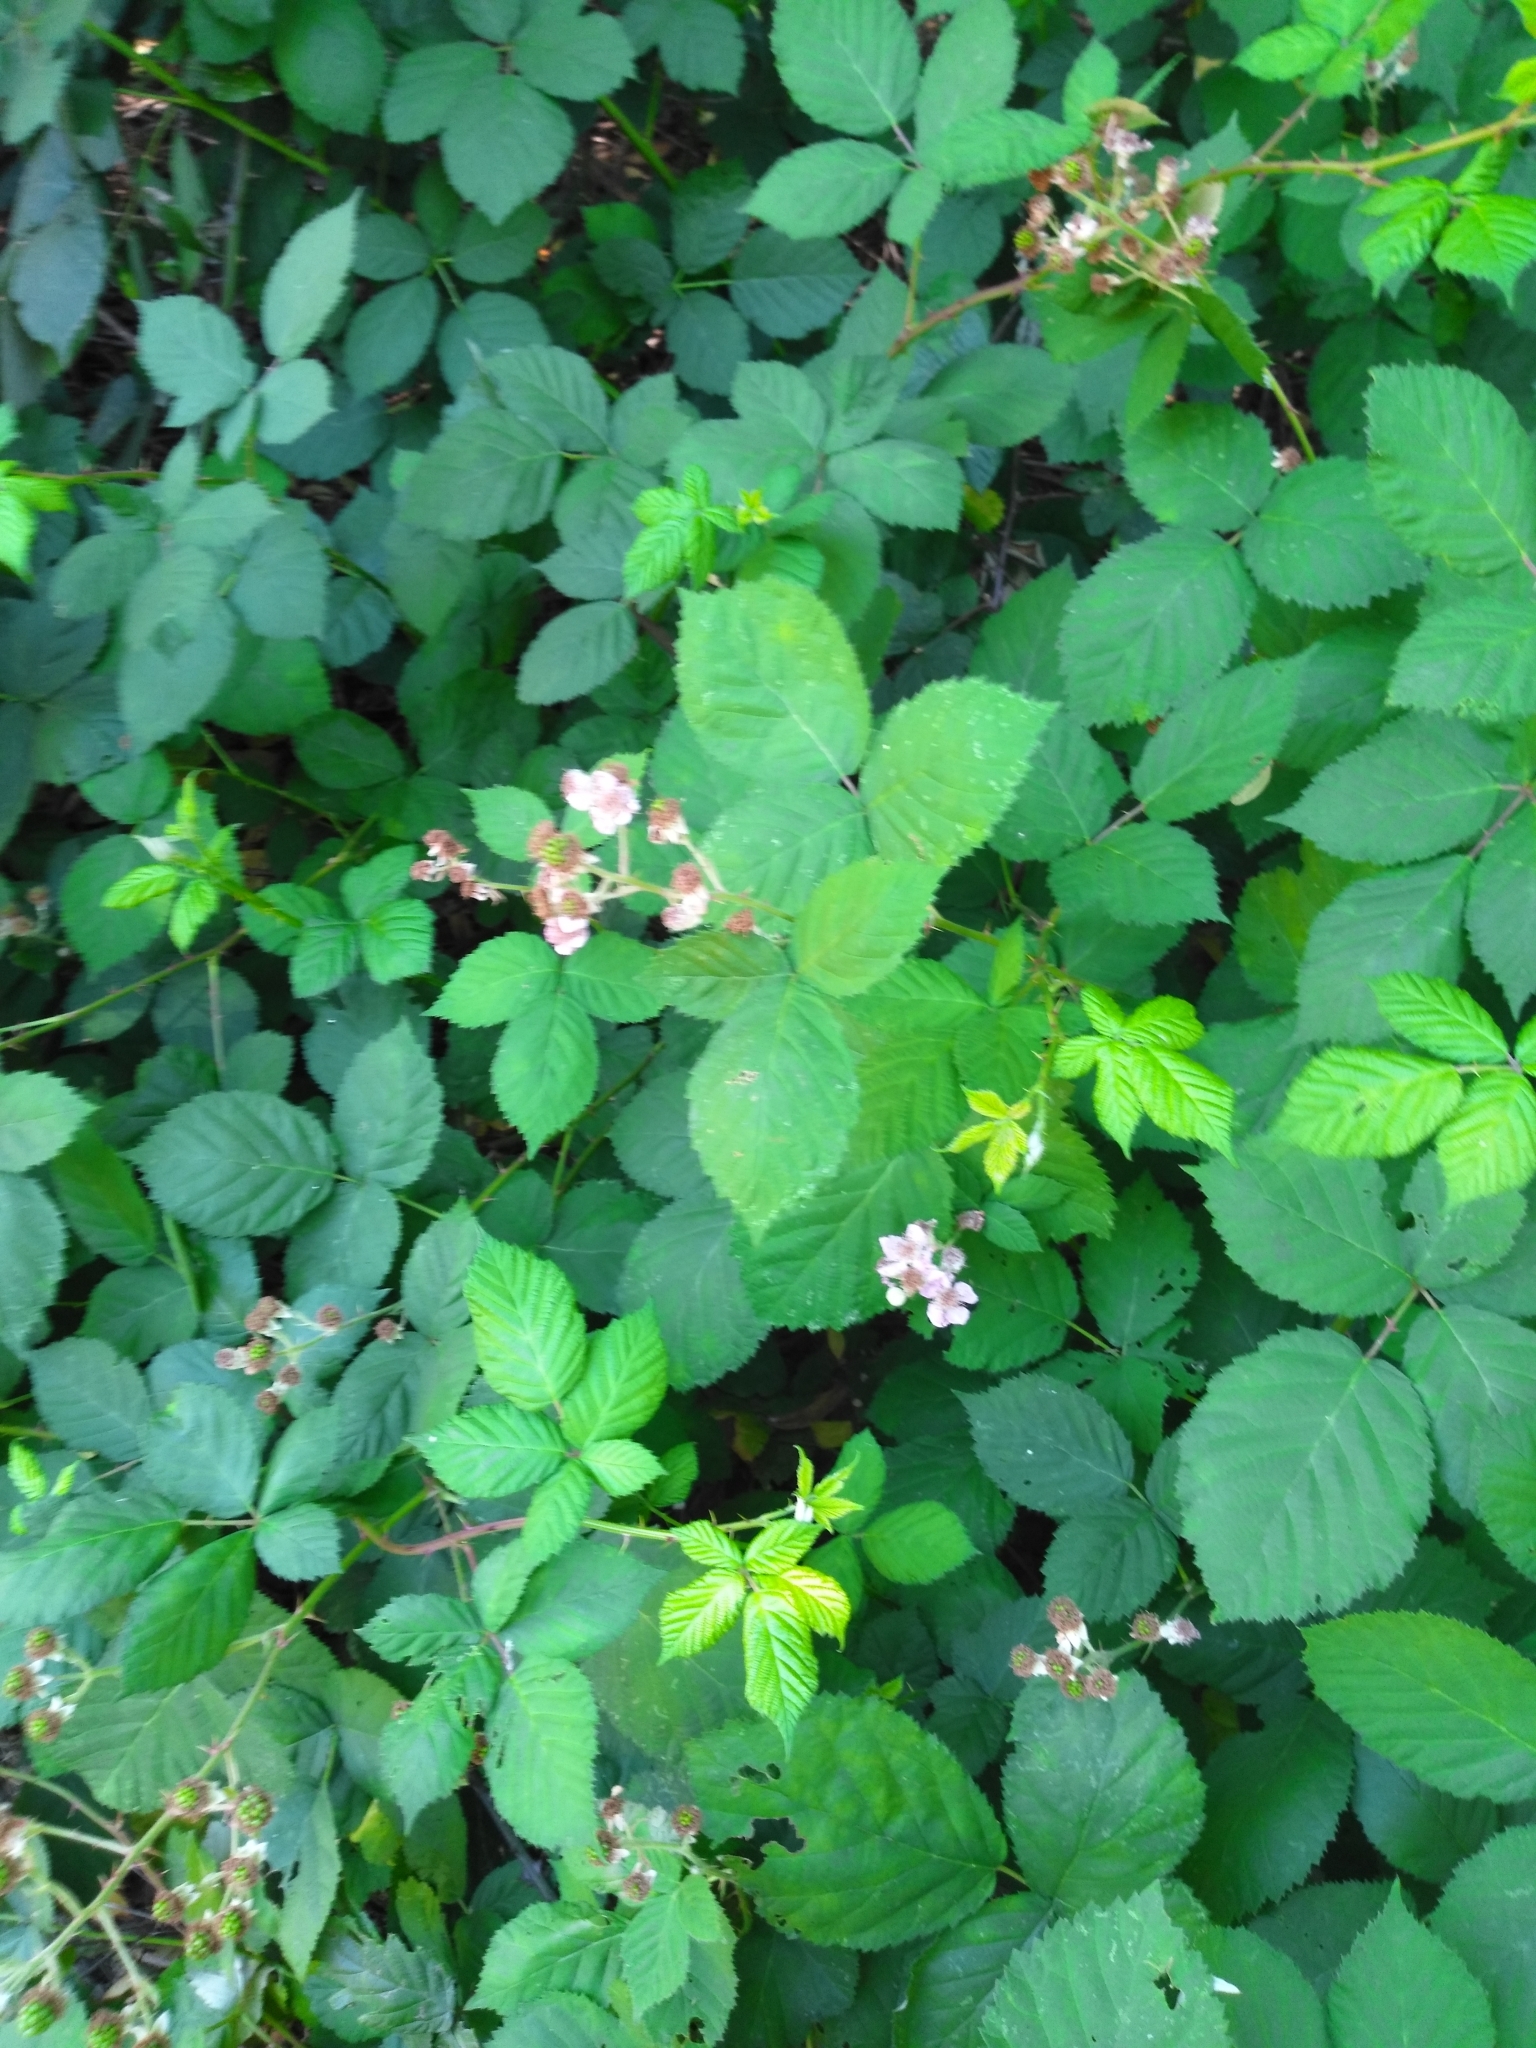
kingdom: Plantae
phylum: Tracheophyta
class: Magnoliopsida
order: Rosales
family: Rosaceae
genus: Rubus
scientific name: Rubus armeniacus
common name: Himalayan blackberry
